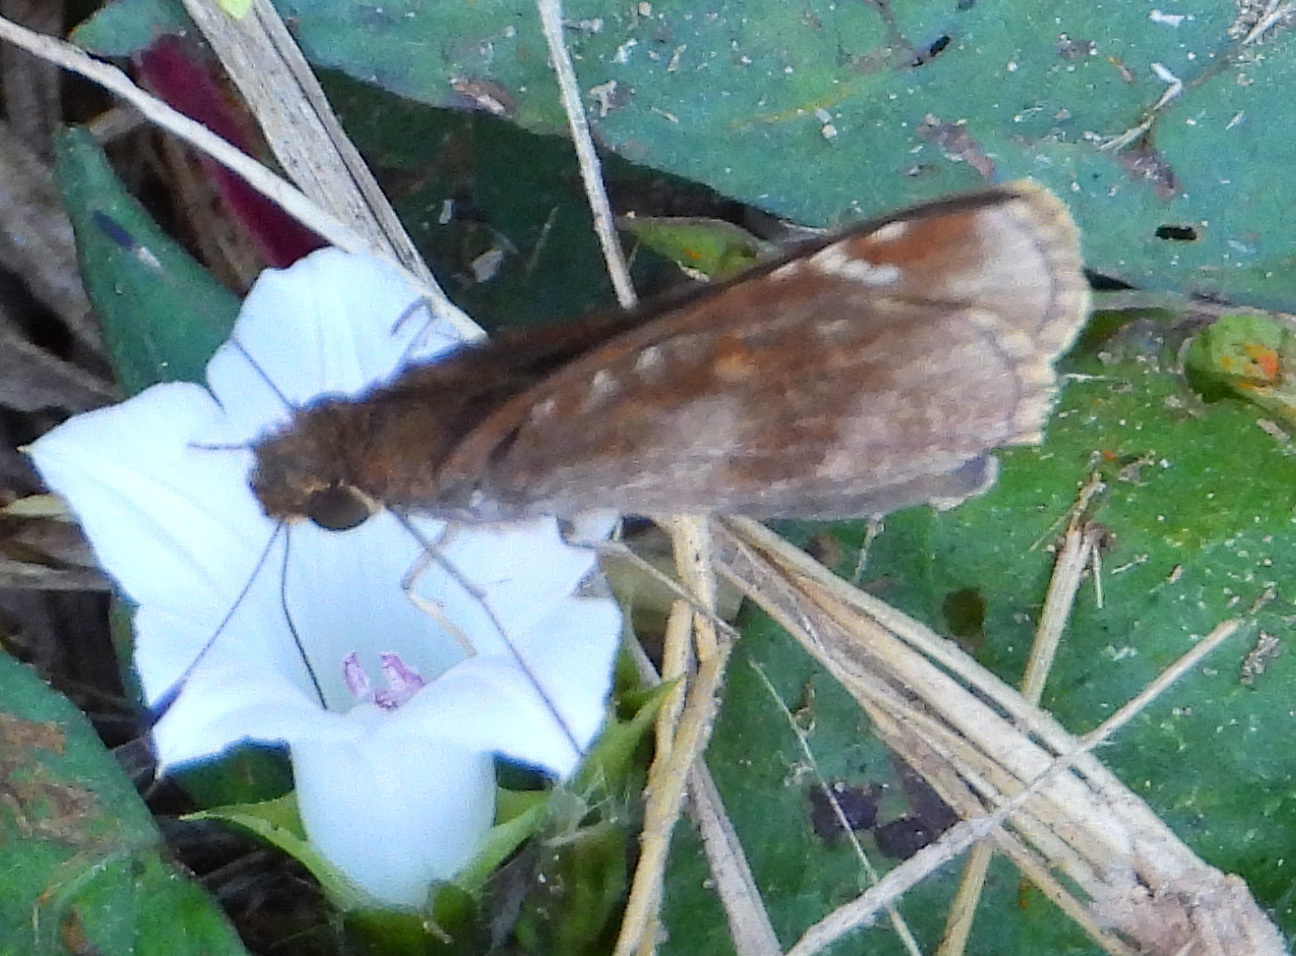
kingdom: Animalia
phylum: Arthropoda
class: Insecta
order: Lepidoptera
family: Hesperiidae
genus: Lerema
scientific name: Lerema accius
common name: Clouded skipper
